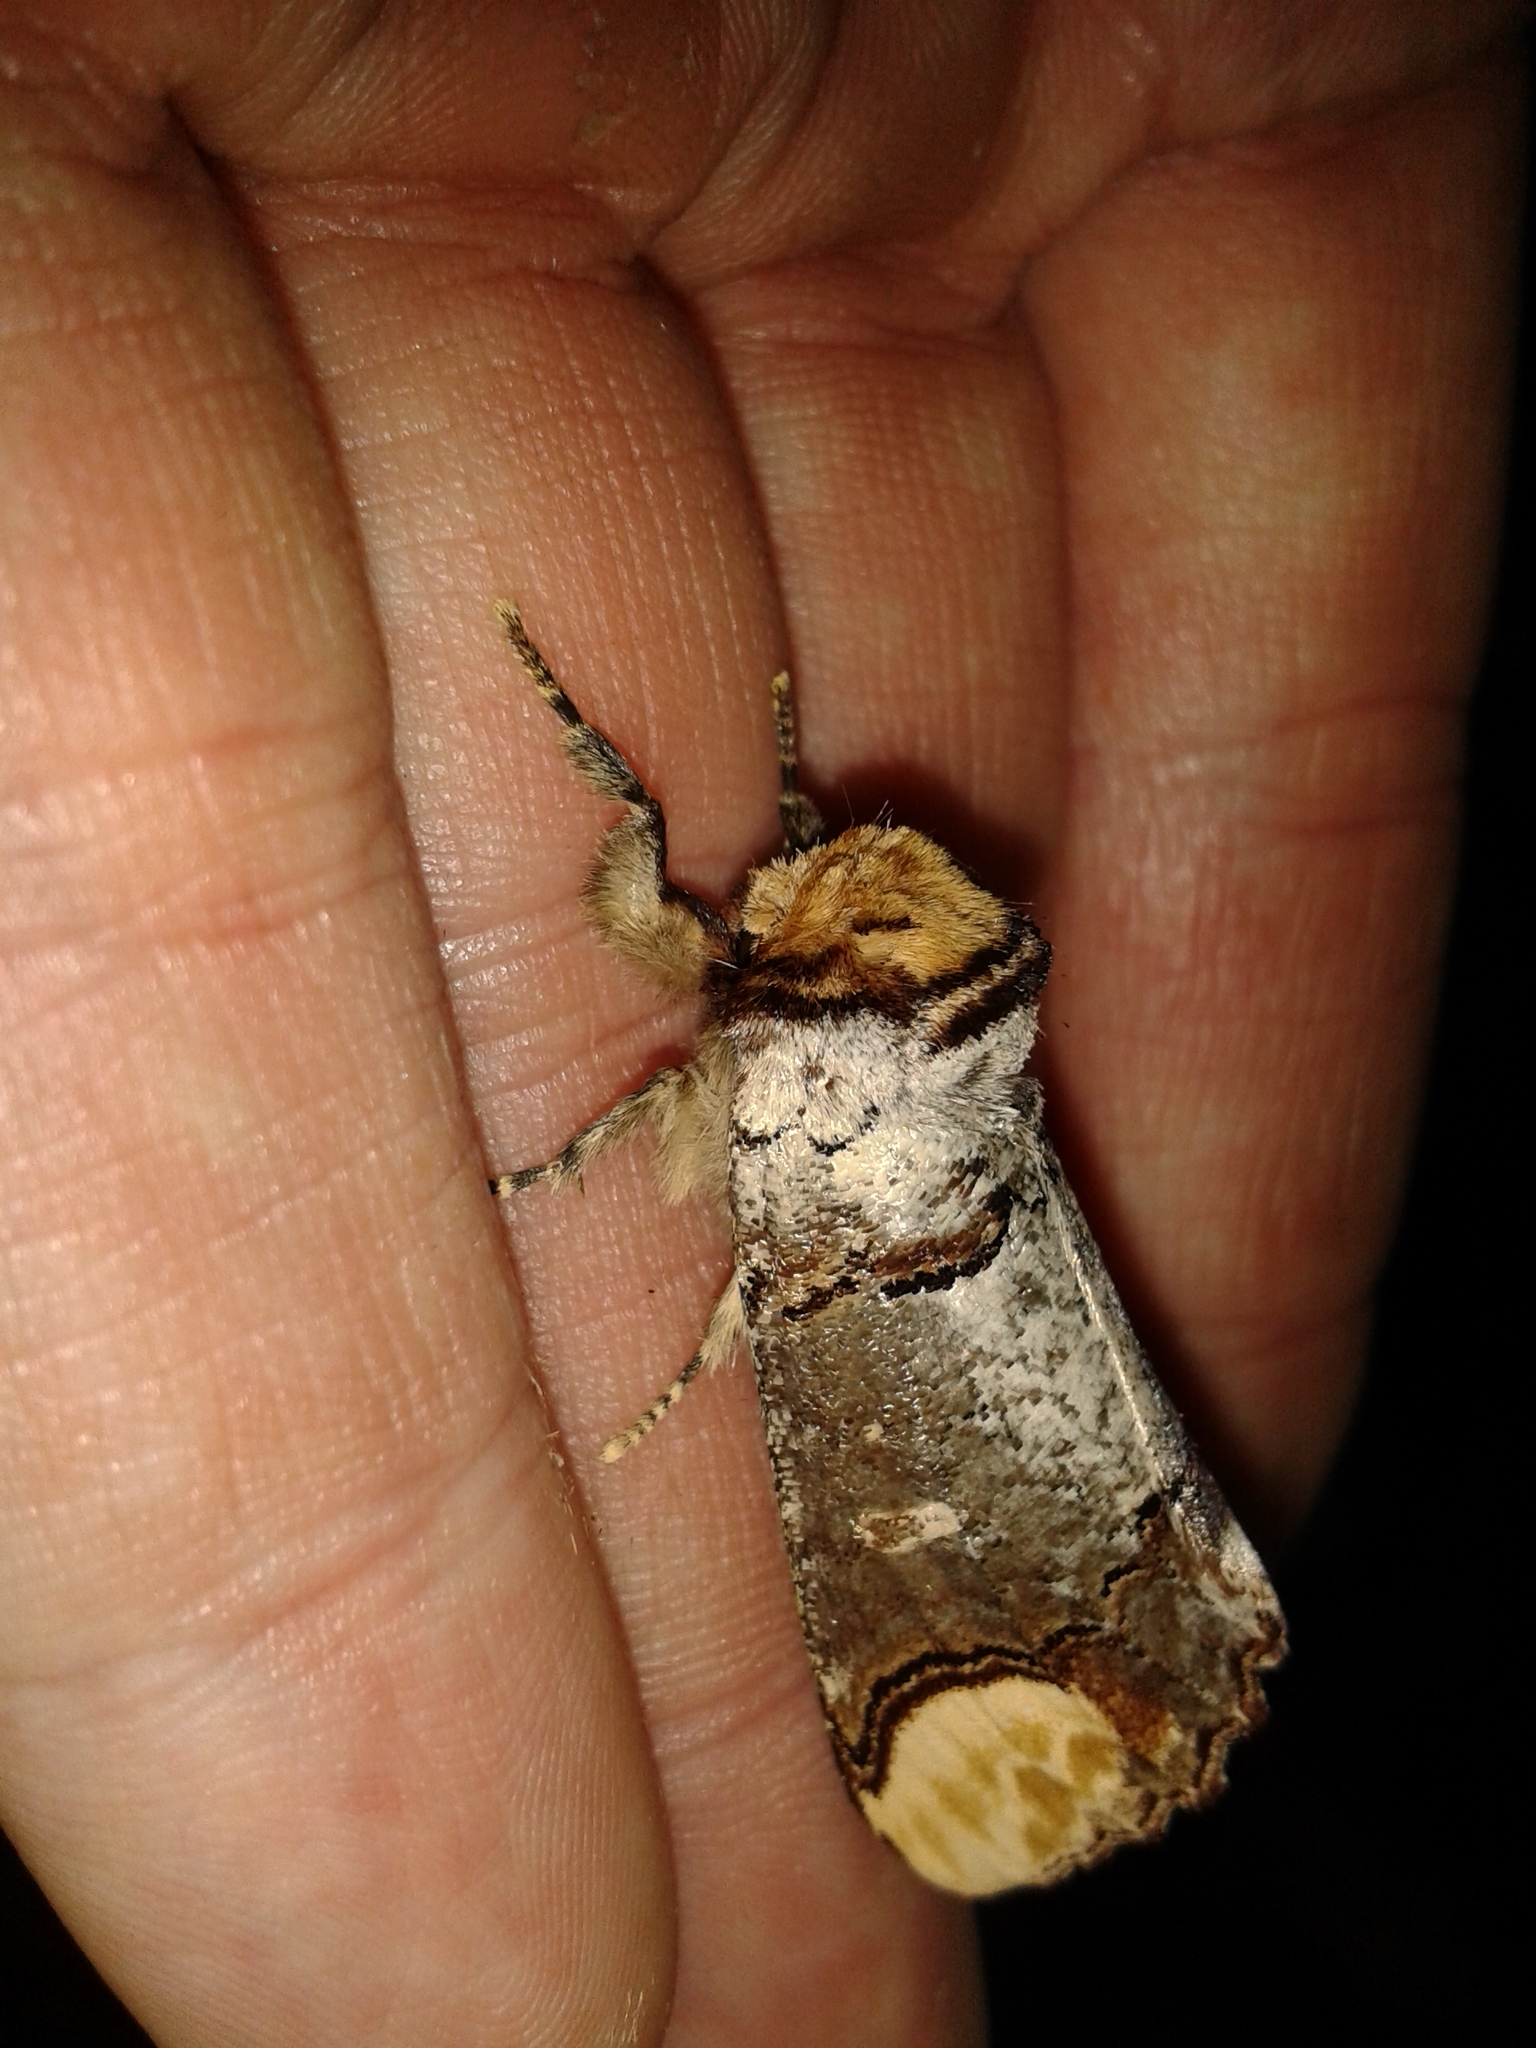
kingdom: Animalia
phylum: Arthropoda
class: Insecta
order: Lepidoptera
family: Notodontidae
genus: Phalera
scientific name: Phalera bucephala
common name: Buff-tip
